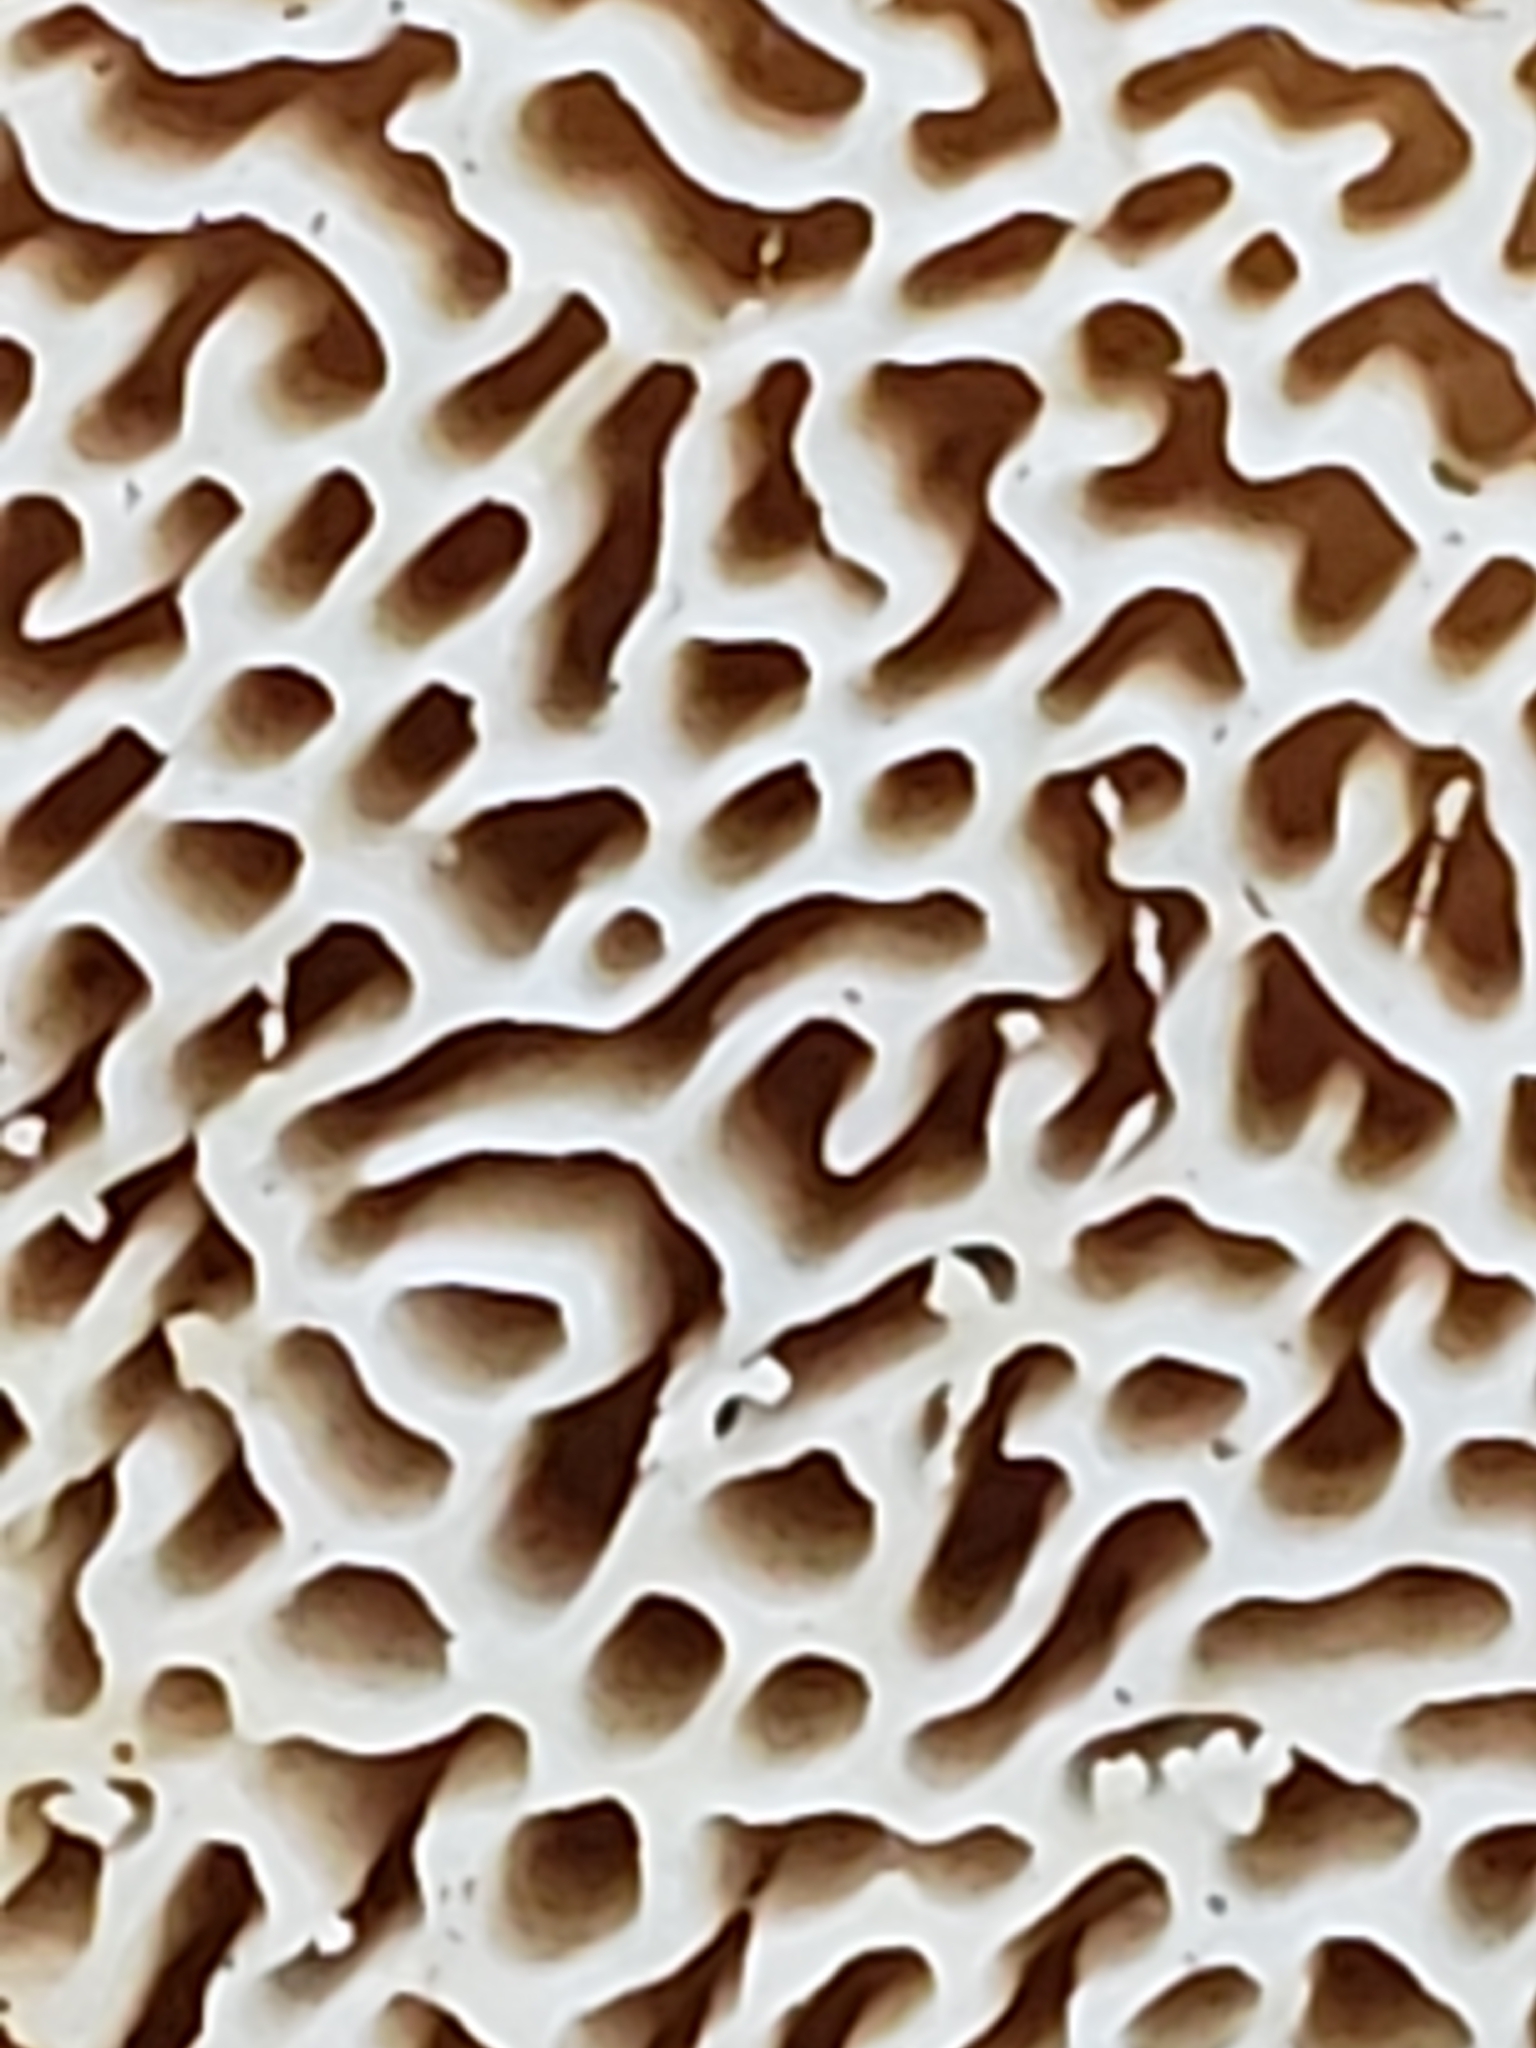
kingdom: Fungi
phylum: Basidiomycota
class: Agaricomycetes
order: Russulales
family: Bondarzewiaceae
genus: Bondarzewia
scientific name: Bondarzewia berkeleyi
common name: Berkeley's polypore
